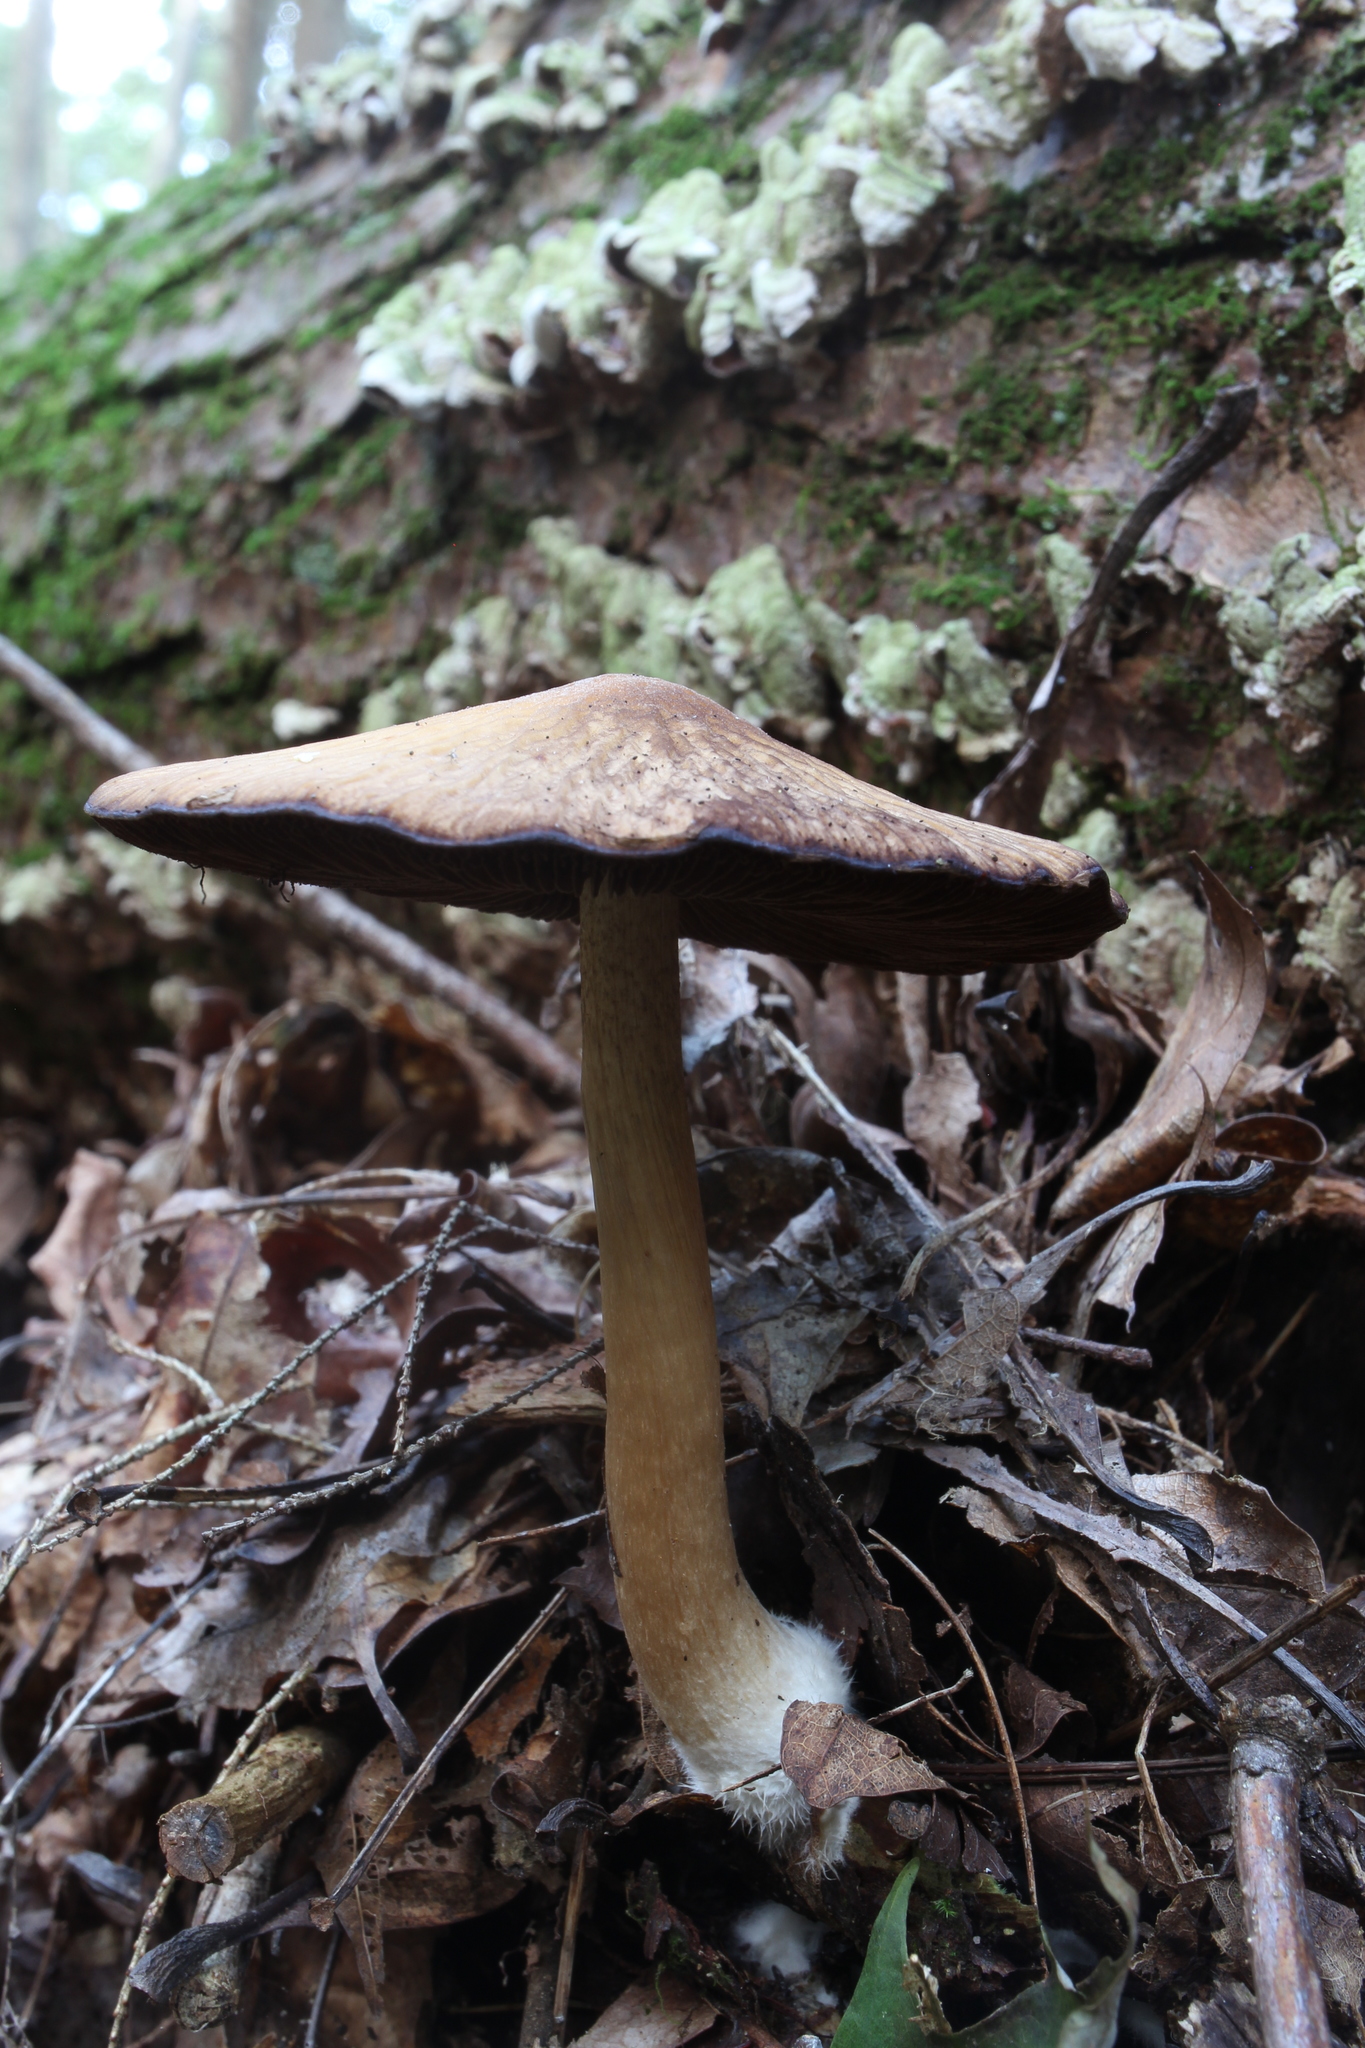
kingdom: Fungi
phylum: Basidiomycota
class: Agaricomycetes
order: Agaricales
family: Psathyrellaceae
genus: Typhrasa
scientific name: Typhrasa gossypina
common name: Wrinkled psathyrella
